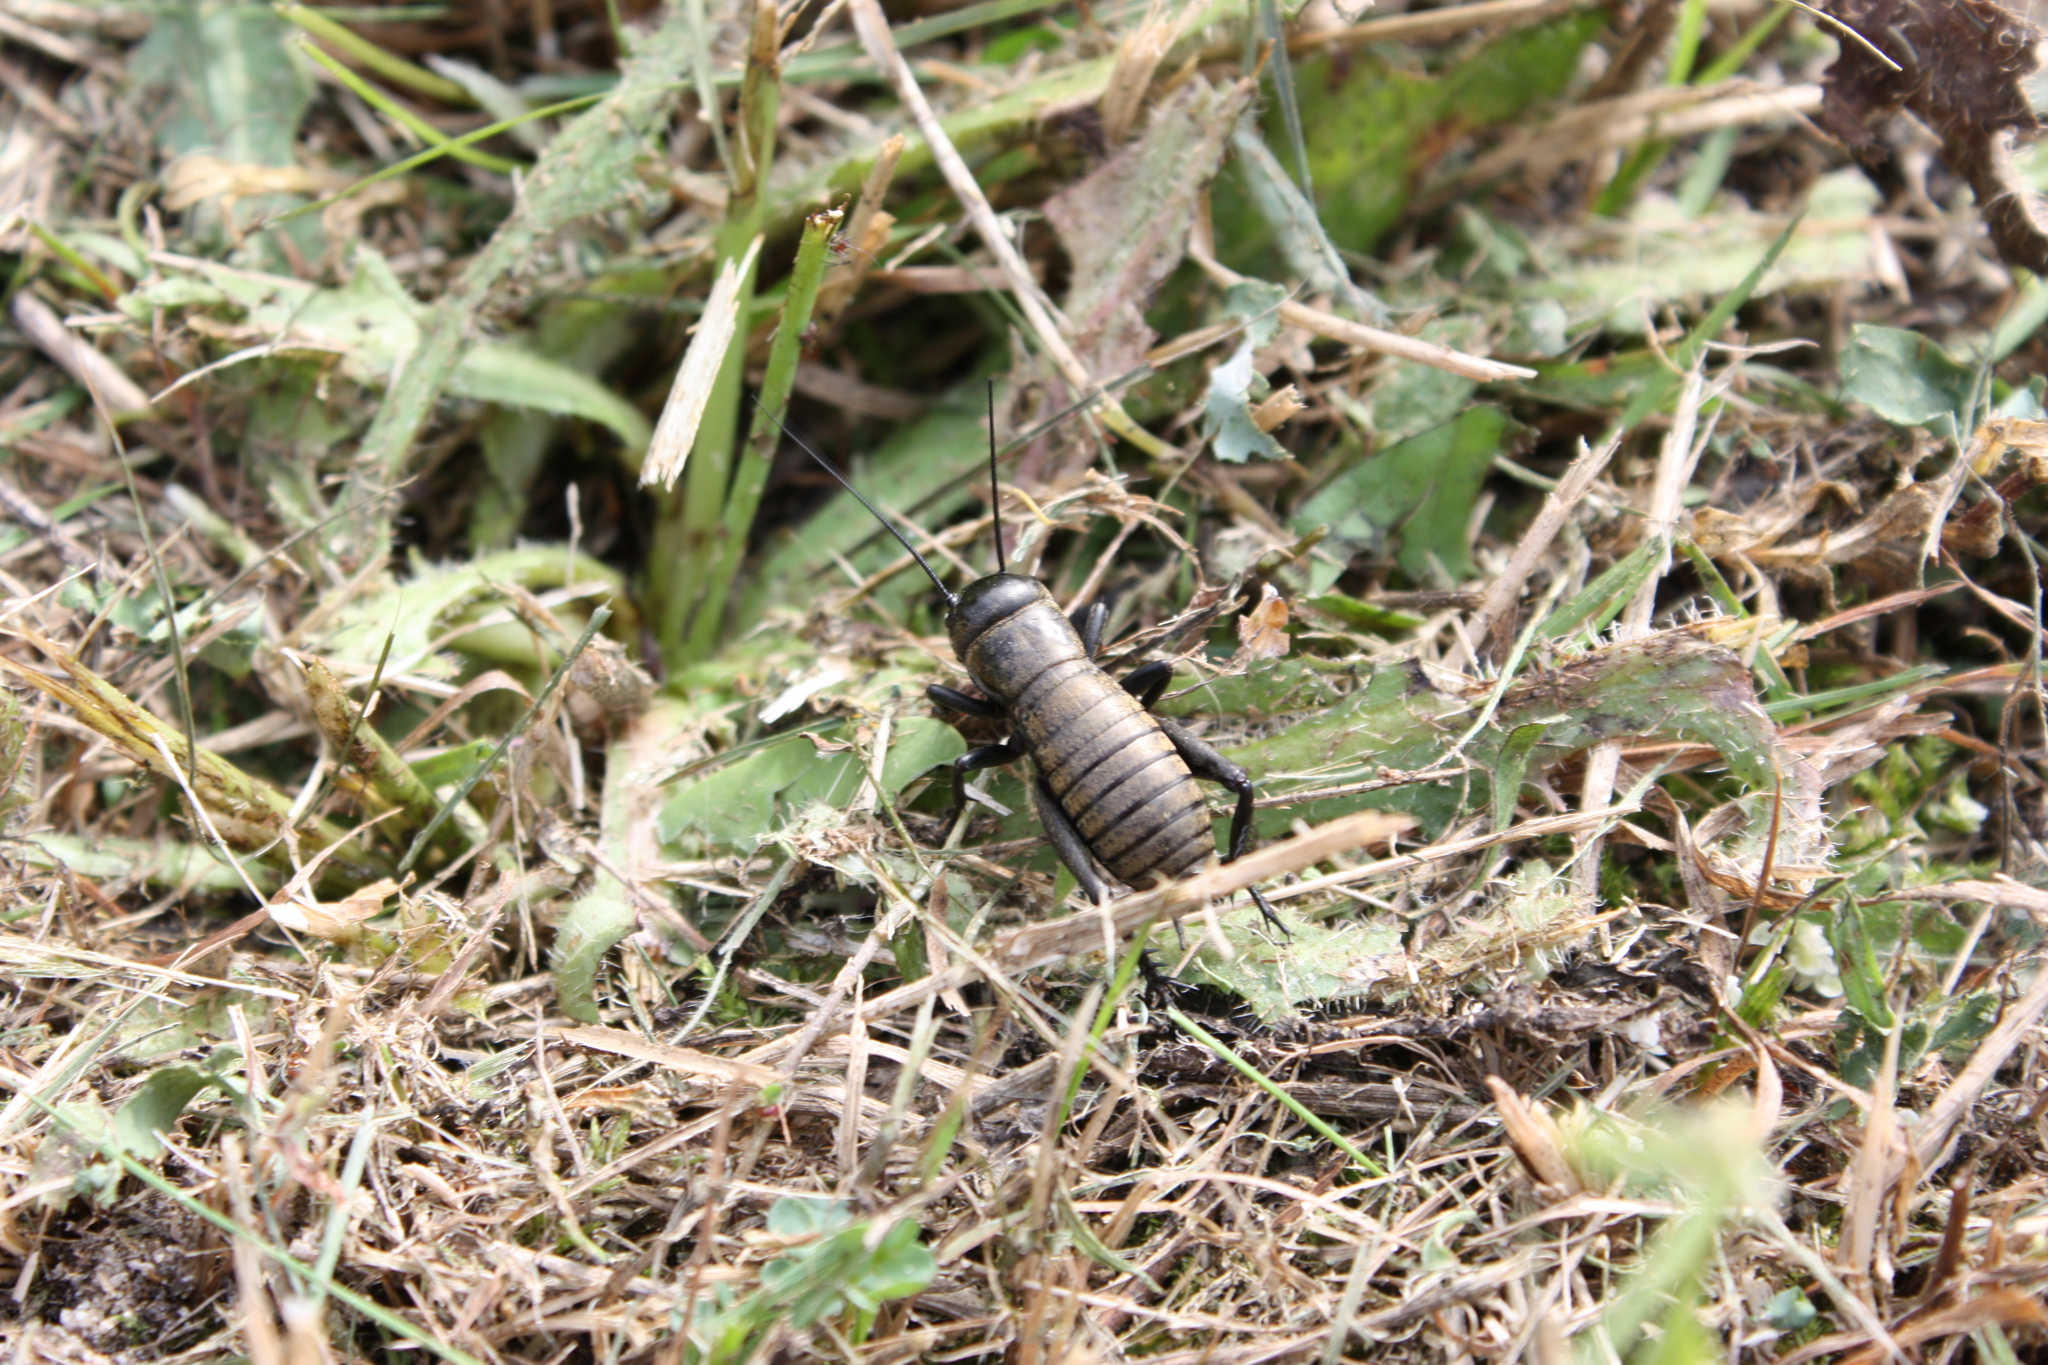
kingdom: Animalia
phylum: Arthropoda
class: Insecta
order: Orthoptera
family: Gryllidae
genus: Gryllus
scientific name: Gryllus campestris
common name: Field cricket
